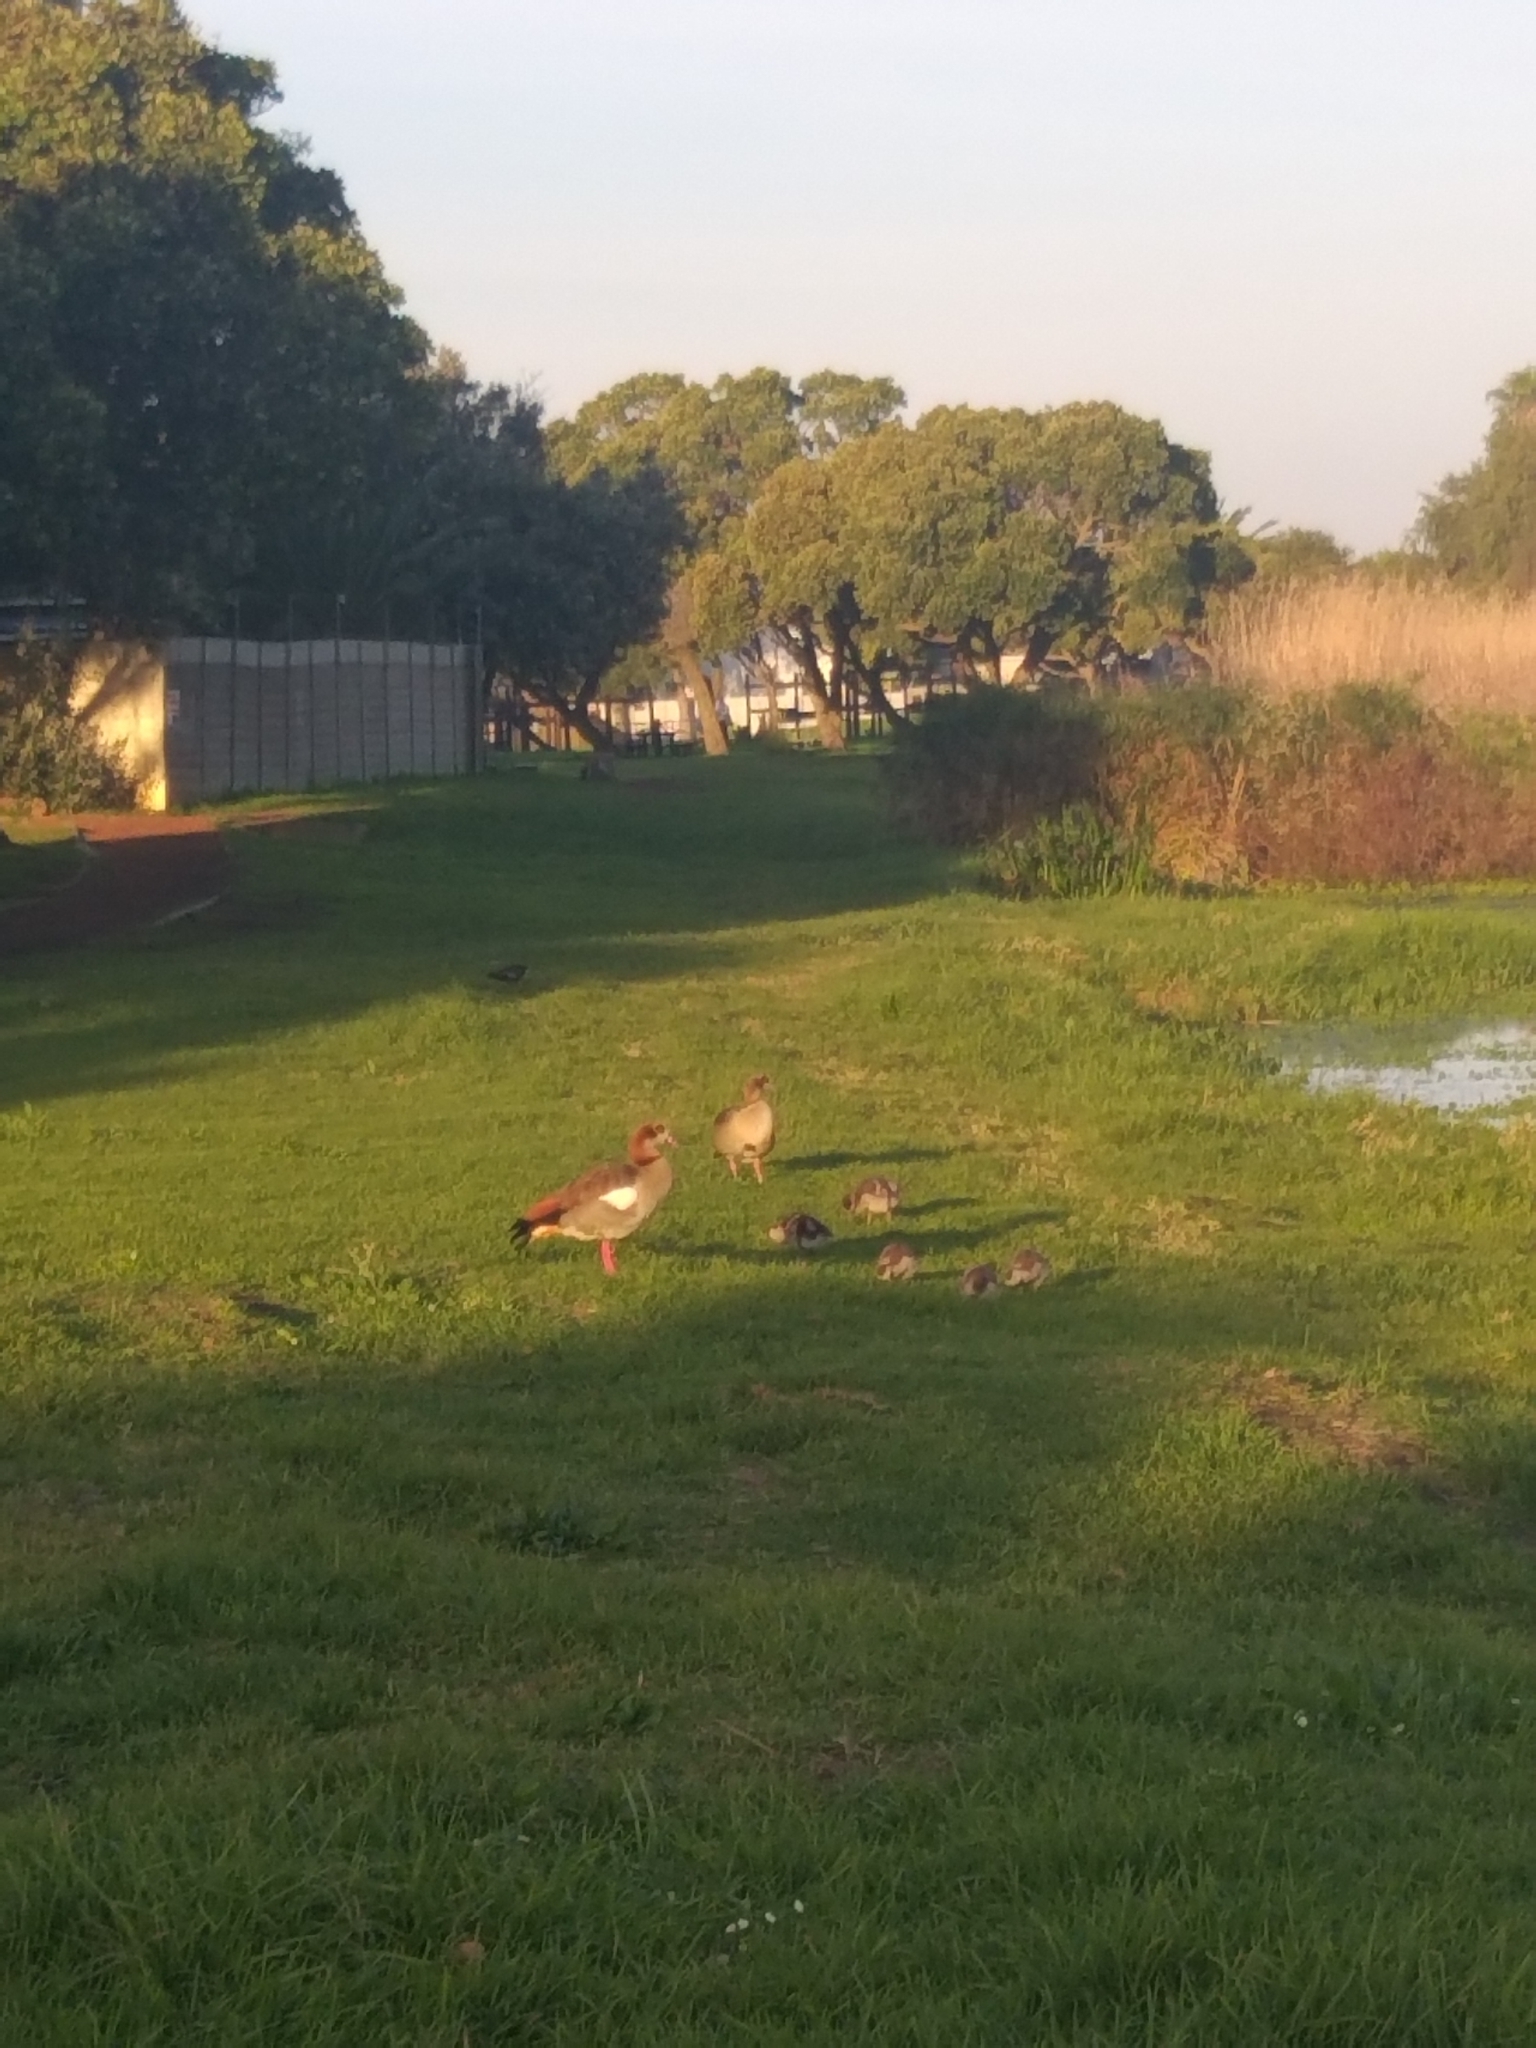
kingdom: Animalia
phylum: Chordata
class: Aves
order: Anseriformes
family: Anatidae
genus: Alopochen
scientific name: Alopochen aegyptiaca
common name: Egyptian goose
